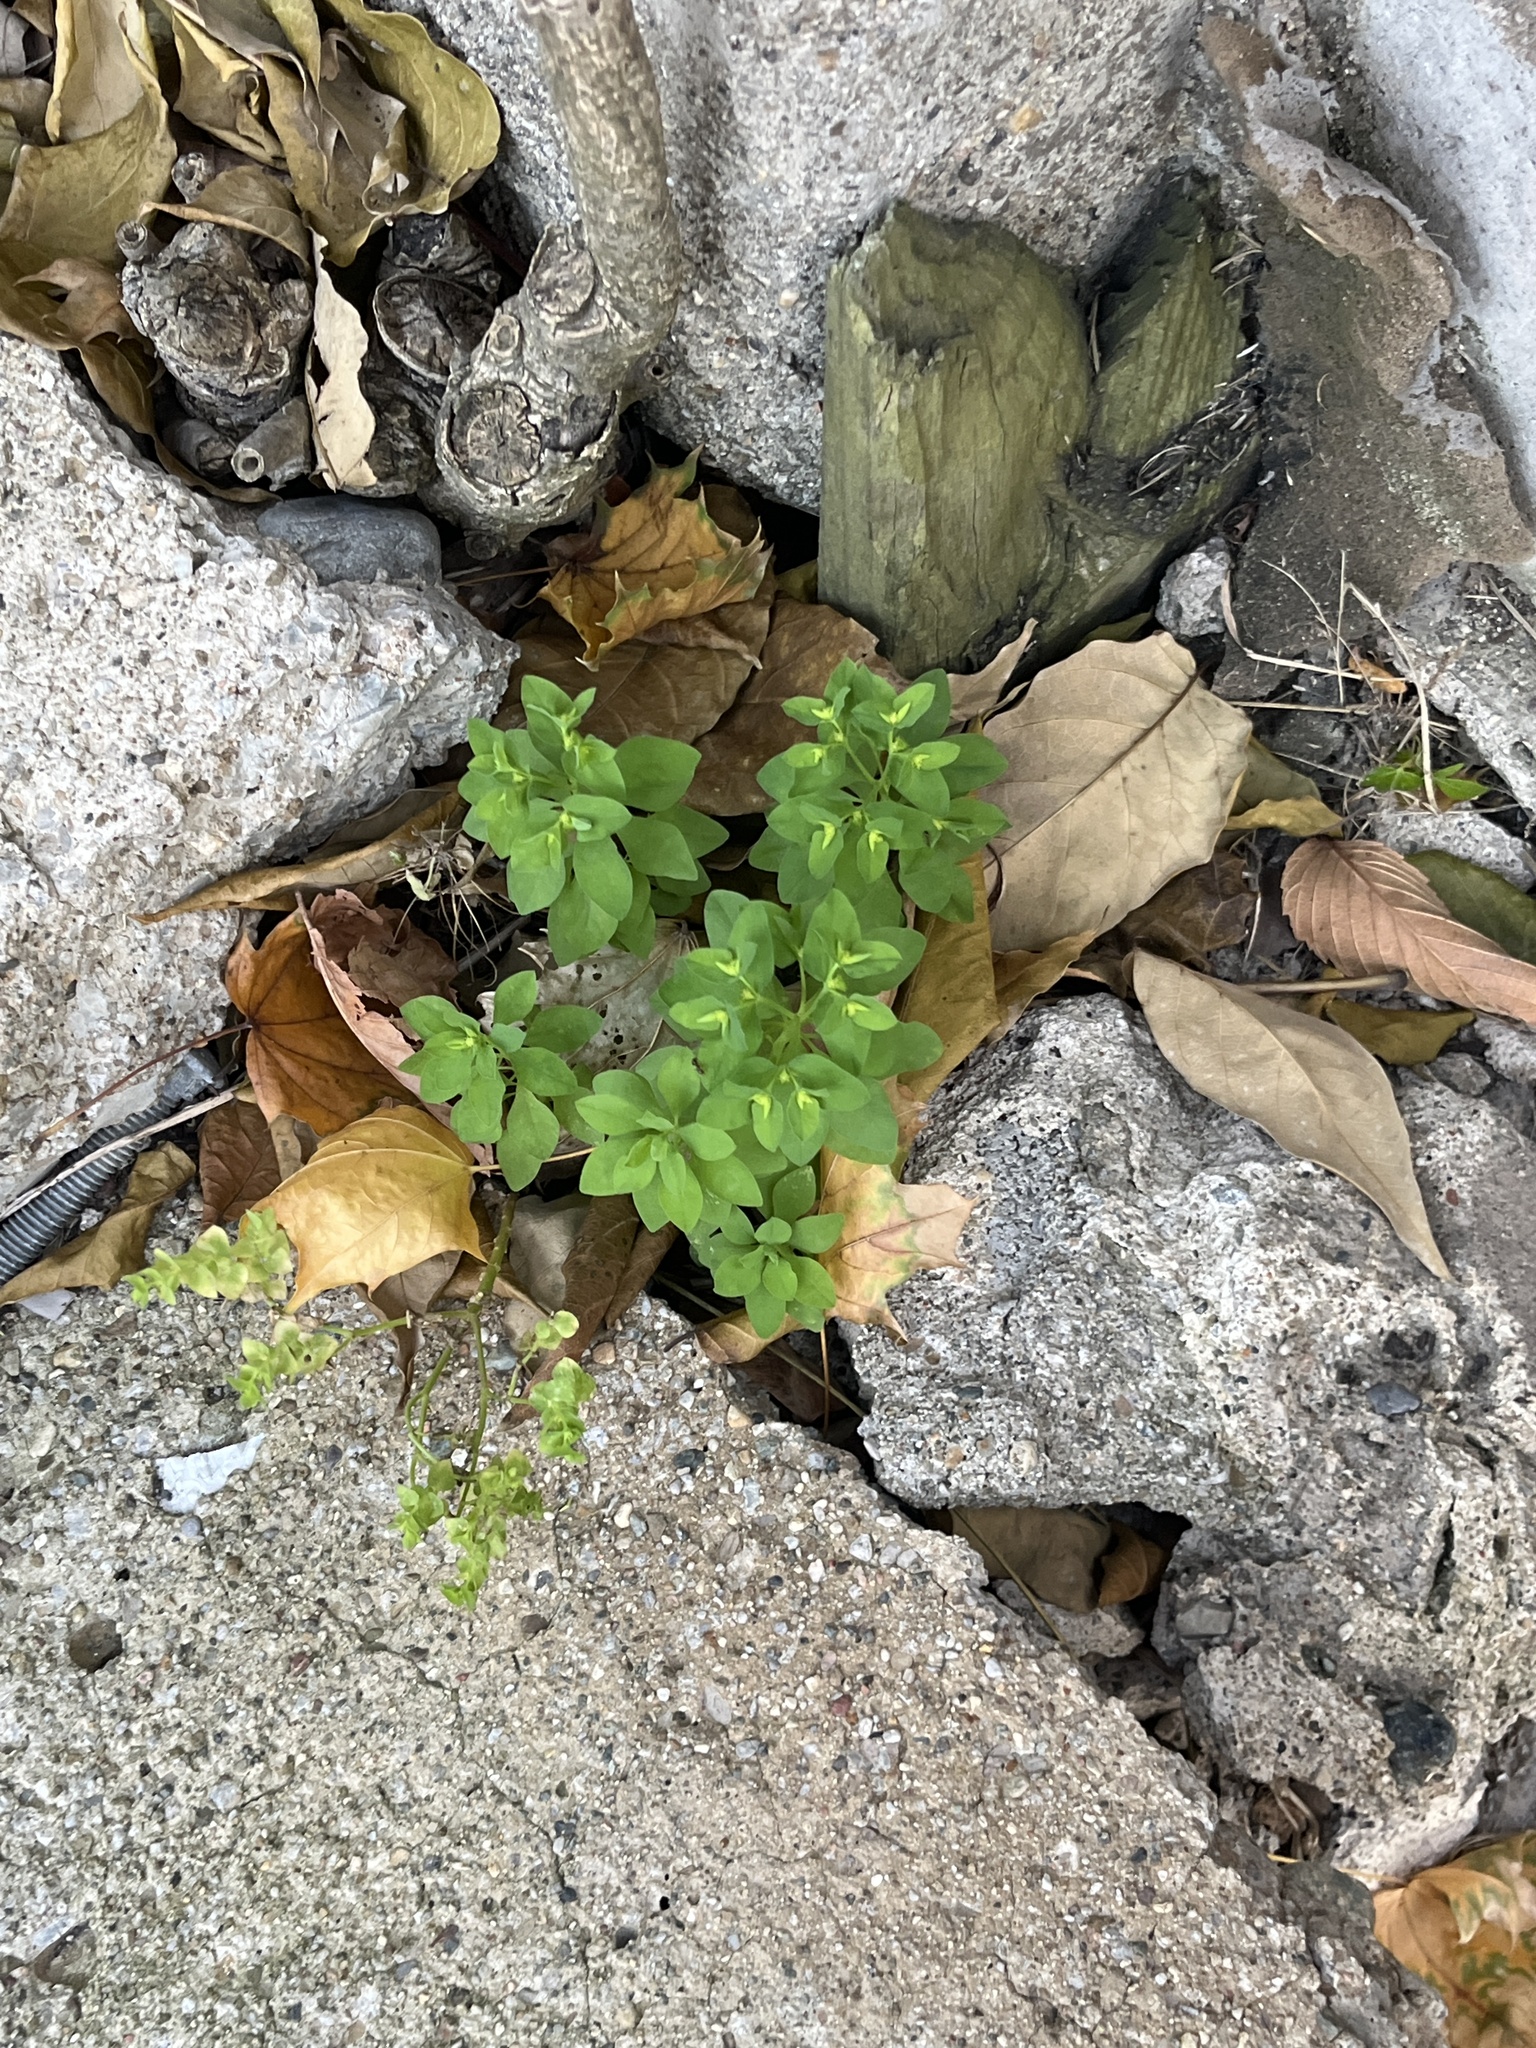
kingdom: Plantae
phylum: Tracheophyta
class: Magnoliopsida
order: Malpighiales
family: Euphorbiaceae
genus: Euphorbia
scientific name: Euphorbia peplus
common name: Petty spurge
